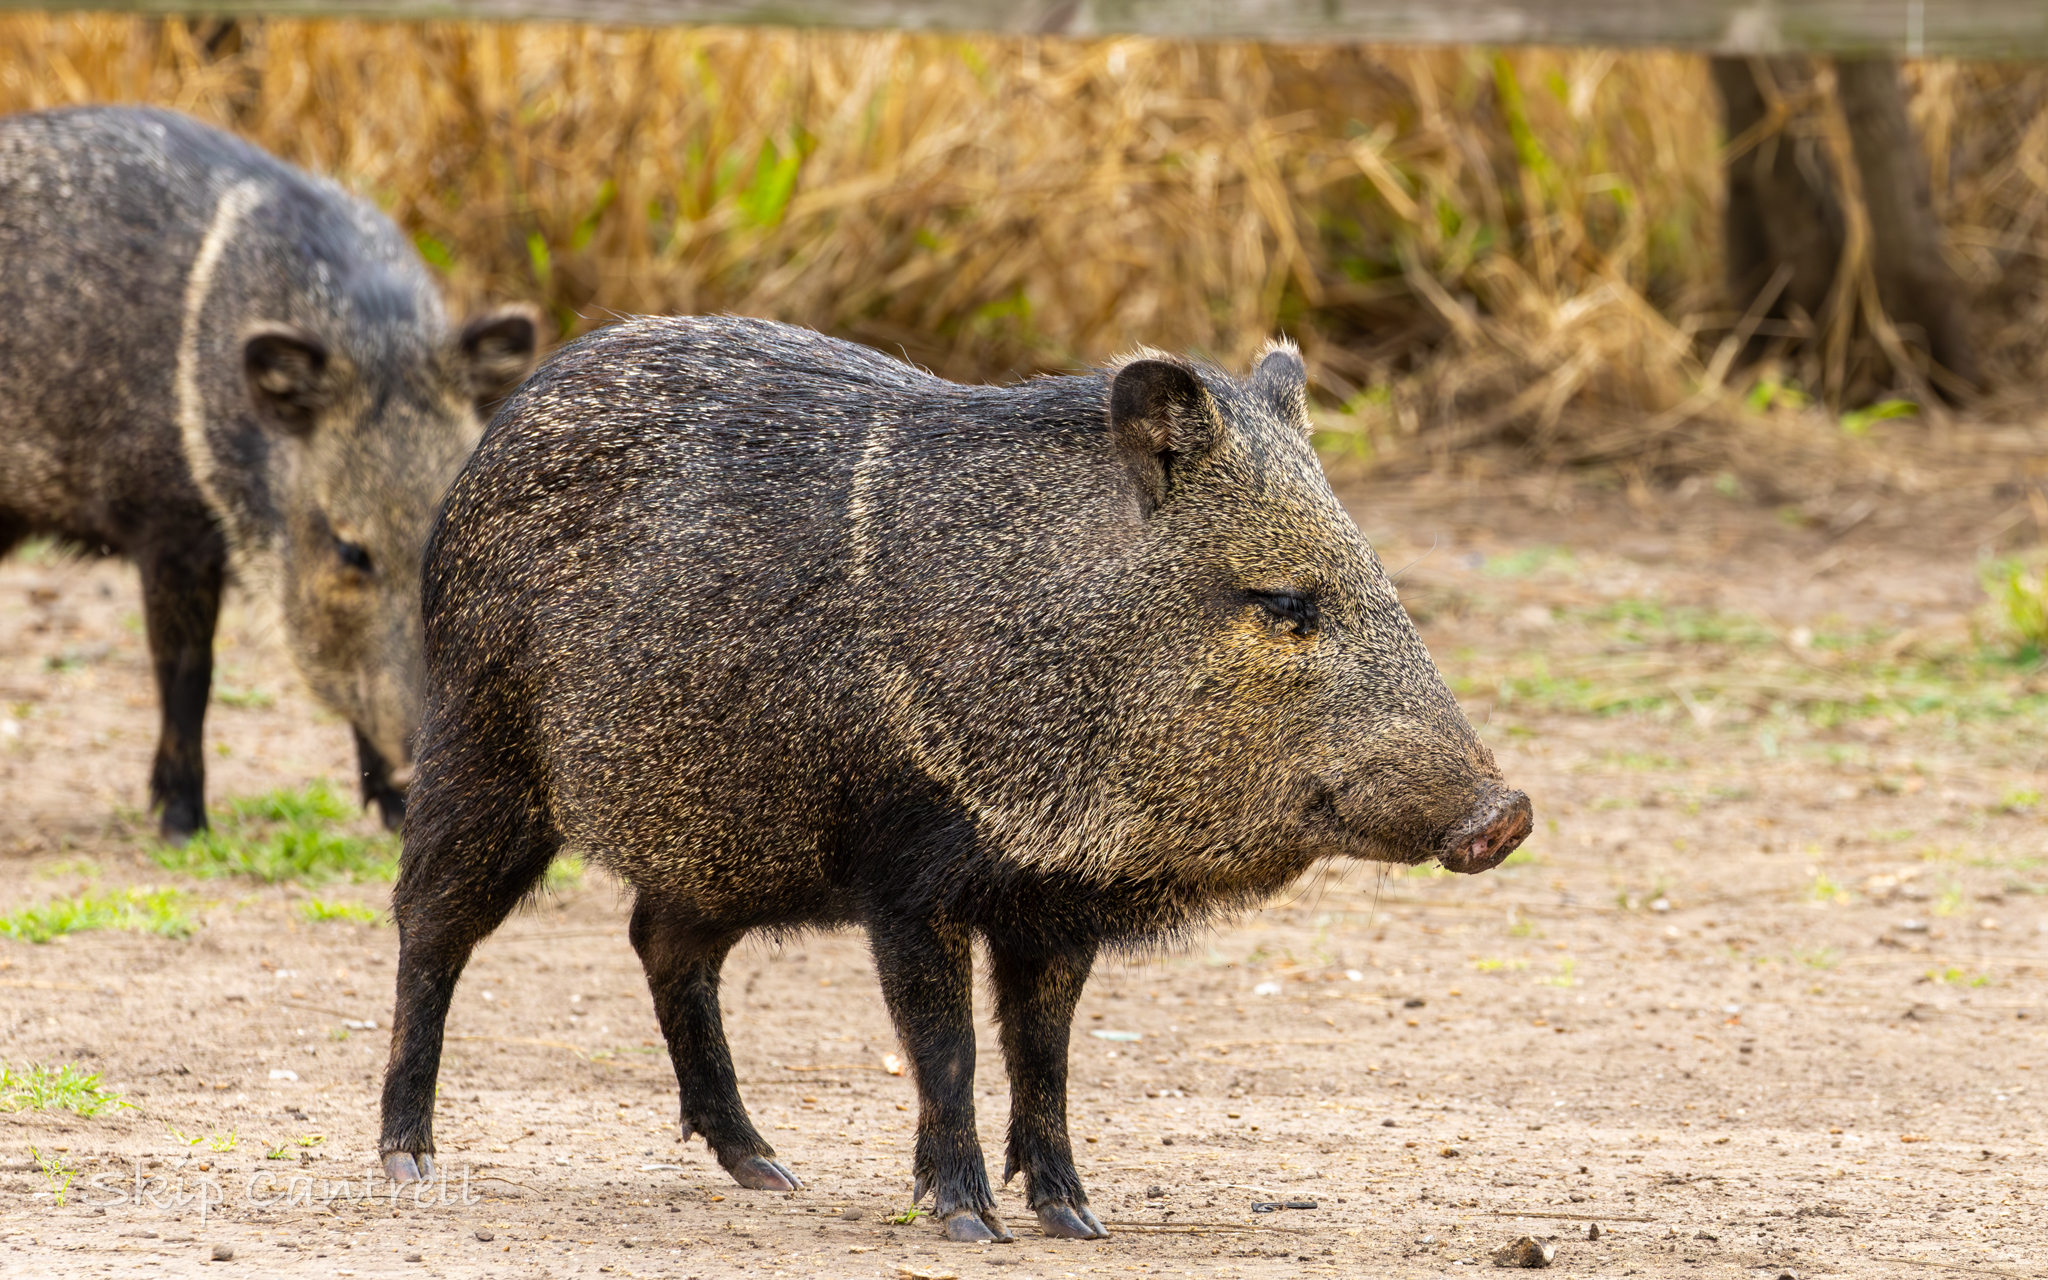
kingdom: Animalia
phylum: Chordata
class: Mammalia
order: Artiodactyla
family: Tayassuidae
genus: Pecari
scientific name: Pecari tajacu
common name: Collared peccary
